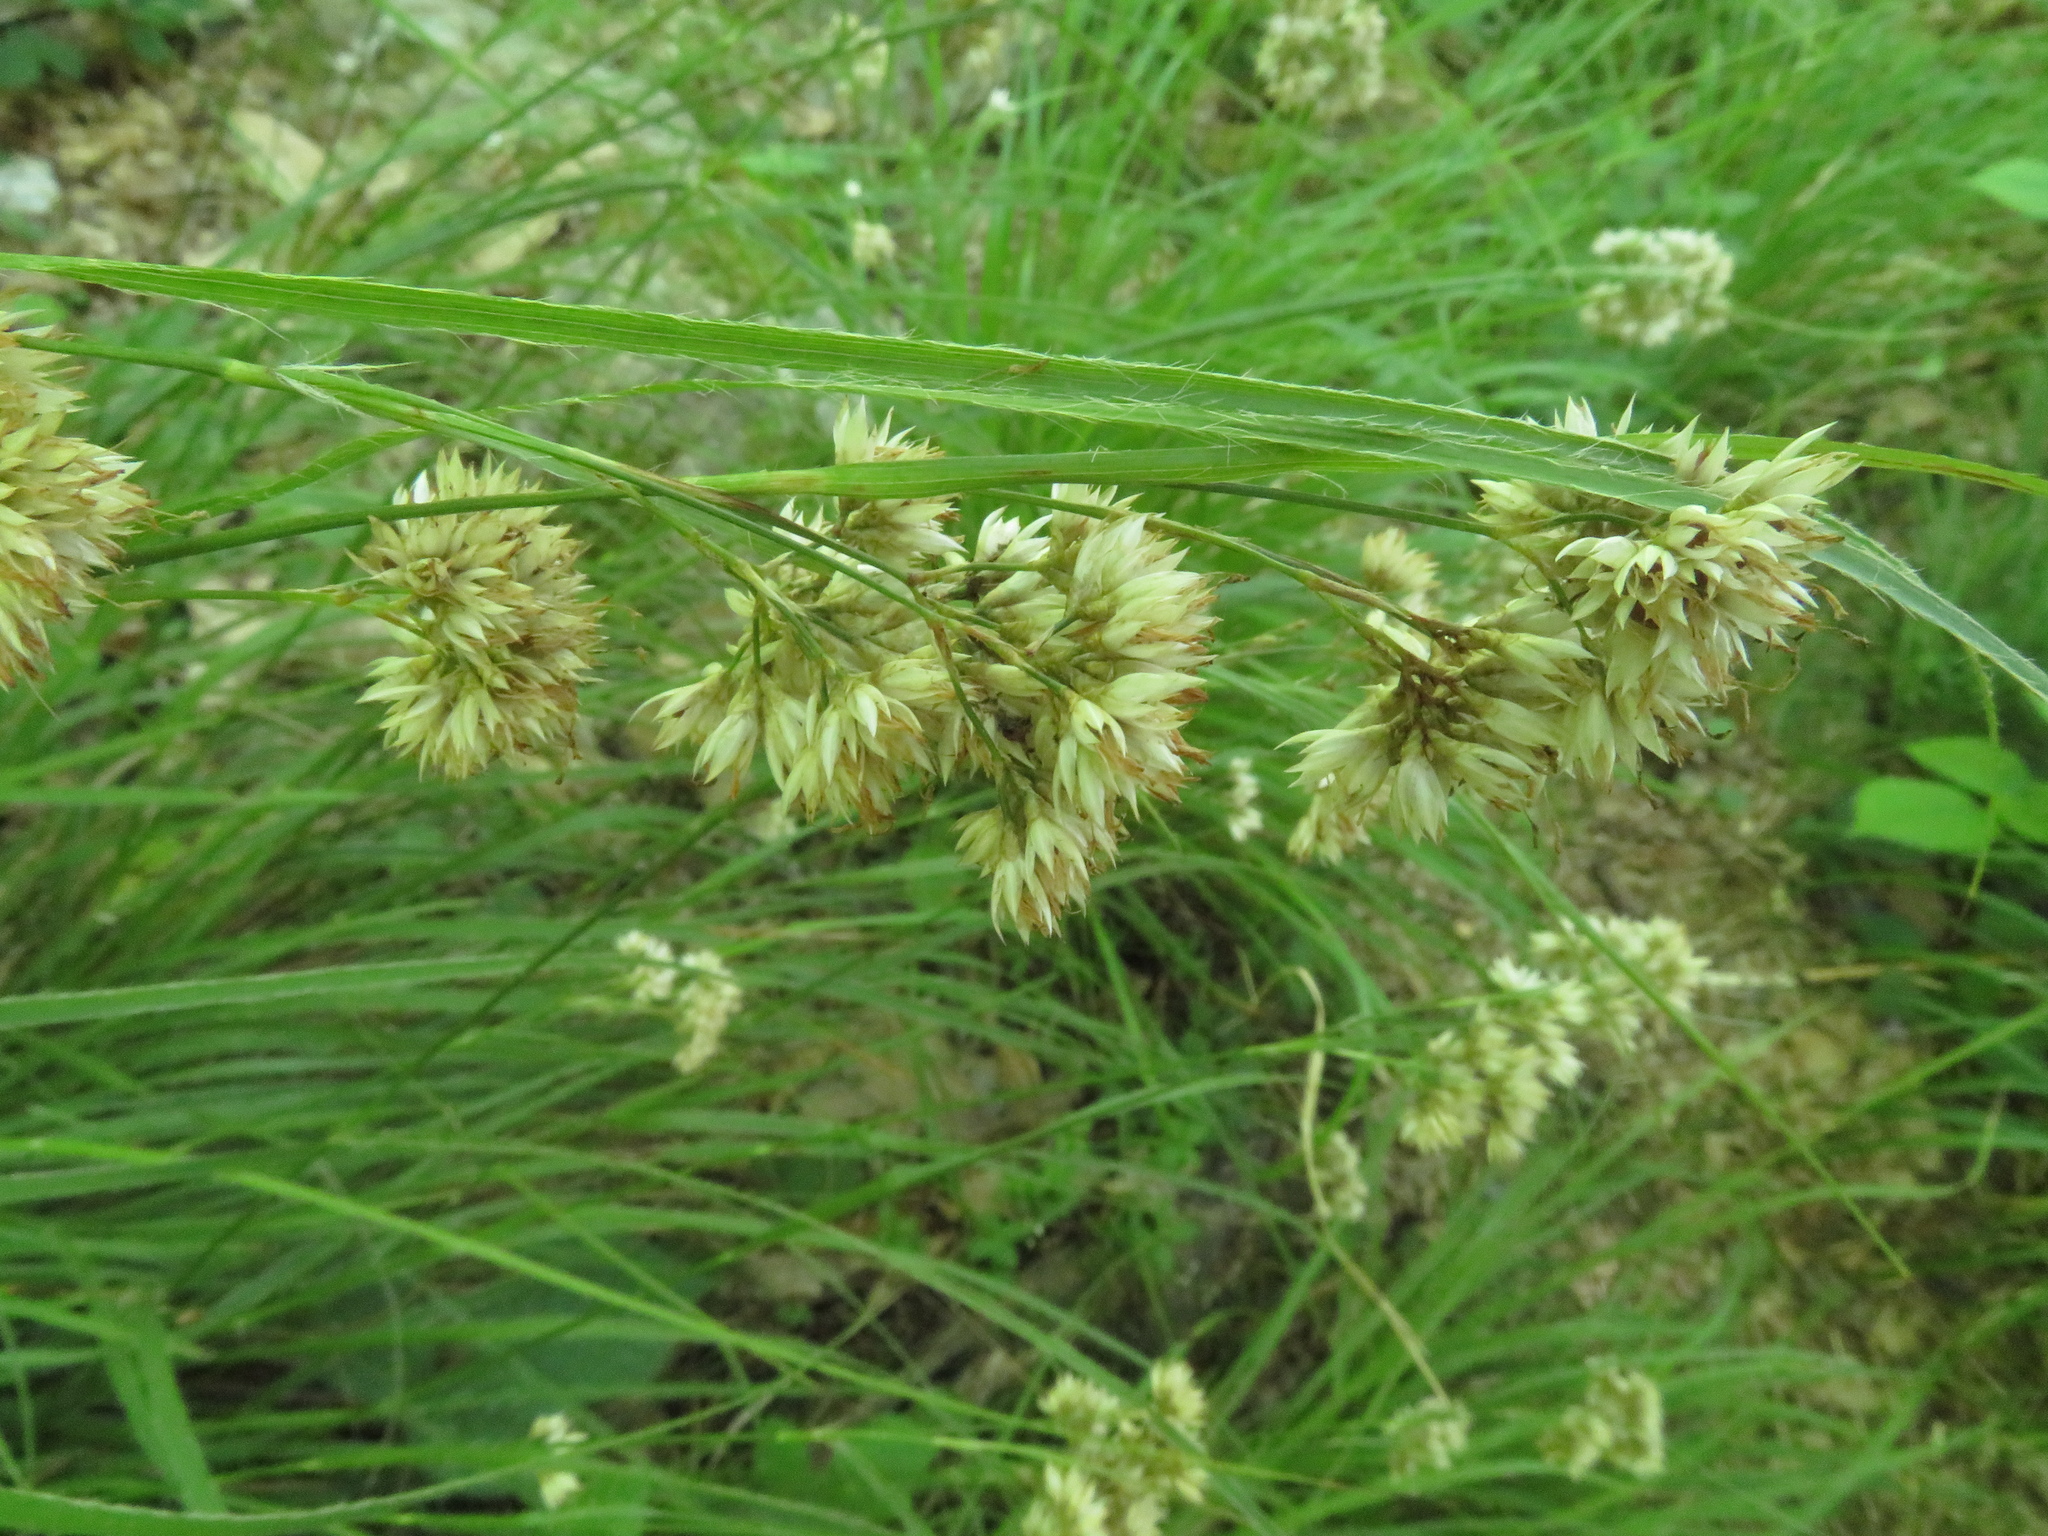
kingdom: Plantae
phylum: Tracheophyta
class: Liliopsida
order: Poales
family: Juncaceae
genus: Luzula
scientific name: Luzula nivea
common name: Snow-white wood-rush
